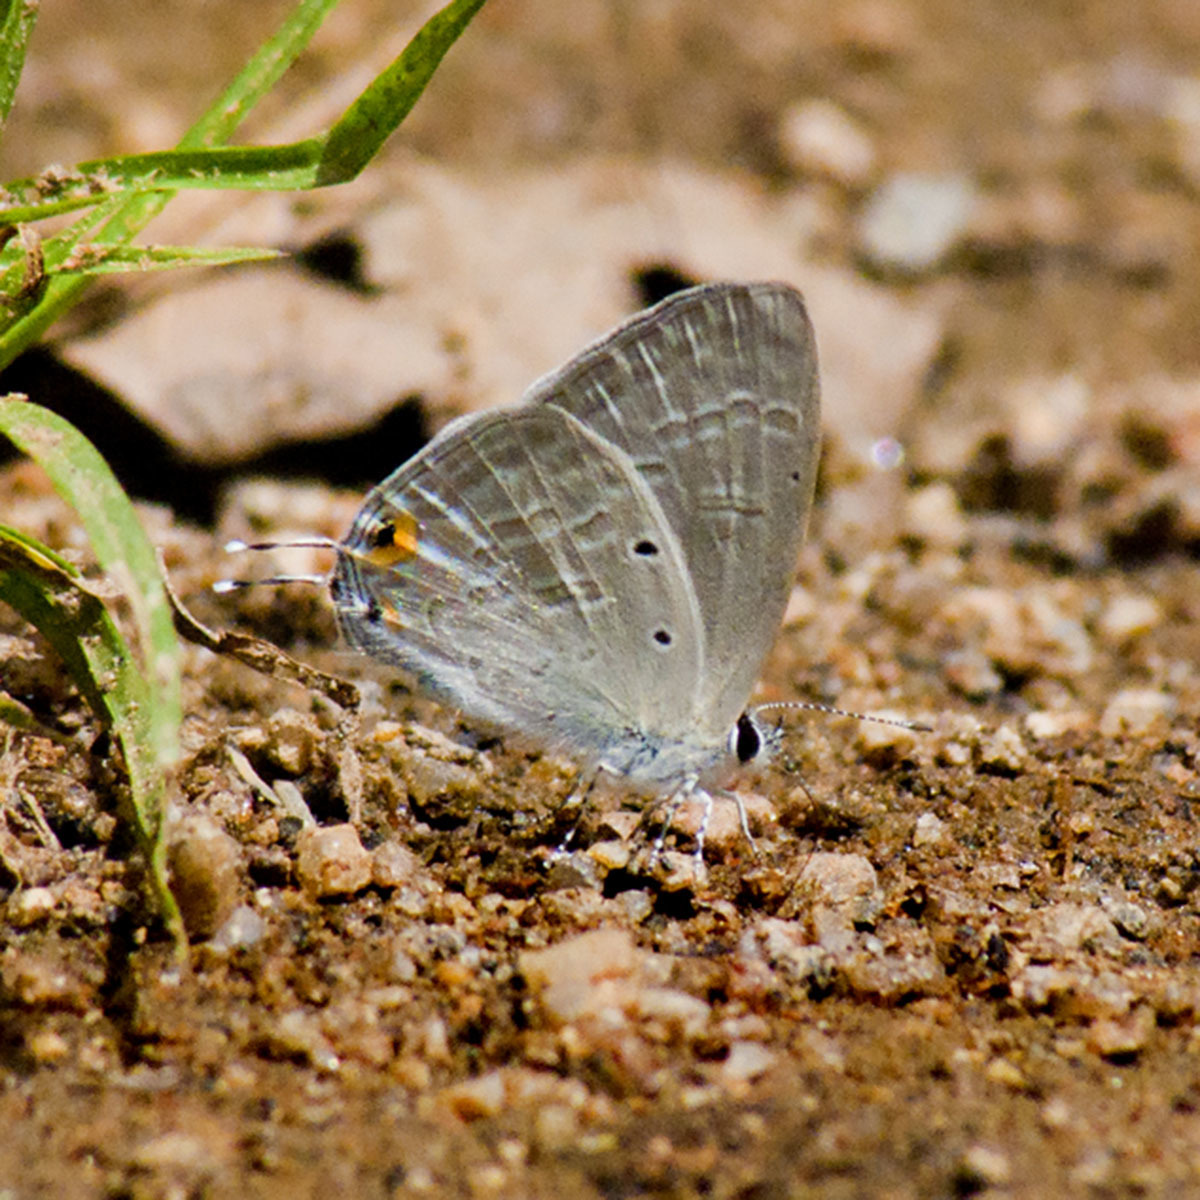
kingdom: Animalia
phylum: Arthropoda
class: Insecta
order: Lepidoptera
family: Lycaenidae
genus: Catochrysops
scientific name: Catochrysops strabo
